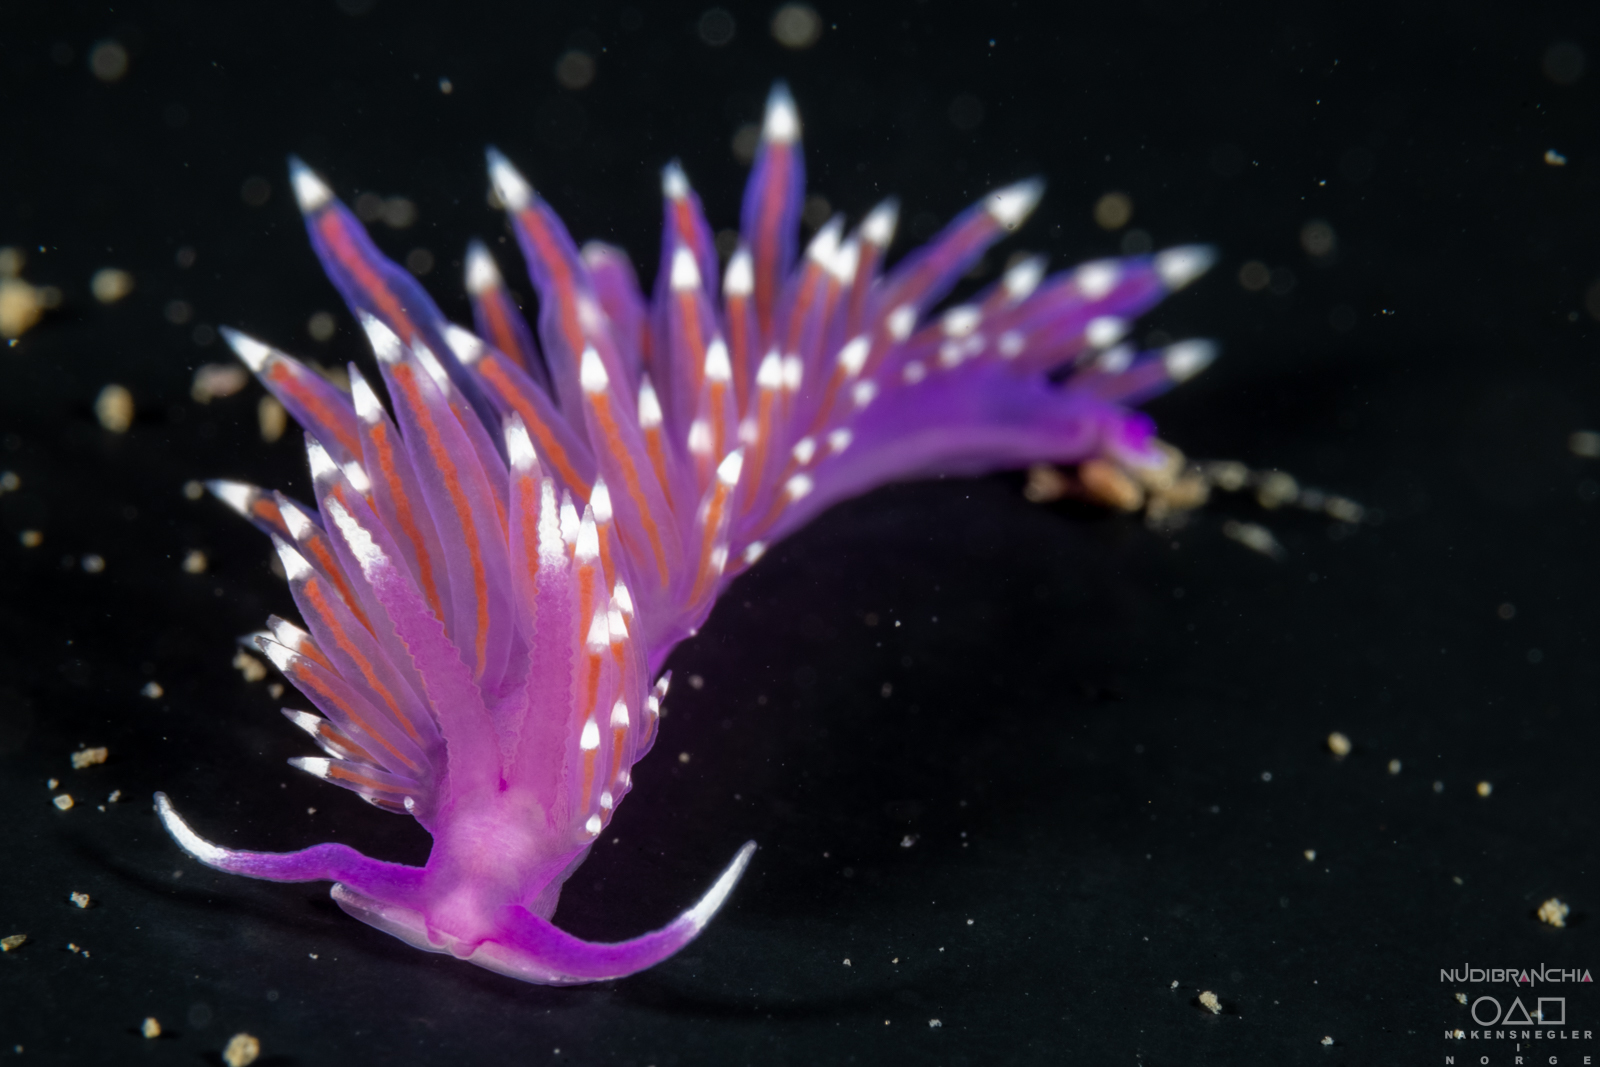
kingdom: Animalia
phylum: Mollusca
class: Gastropoda
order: Nudibranchia
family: Flabellinidae
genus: Edmundsella
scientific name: Edmundsella pedata
